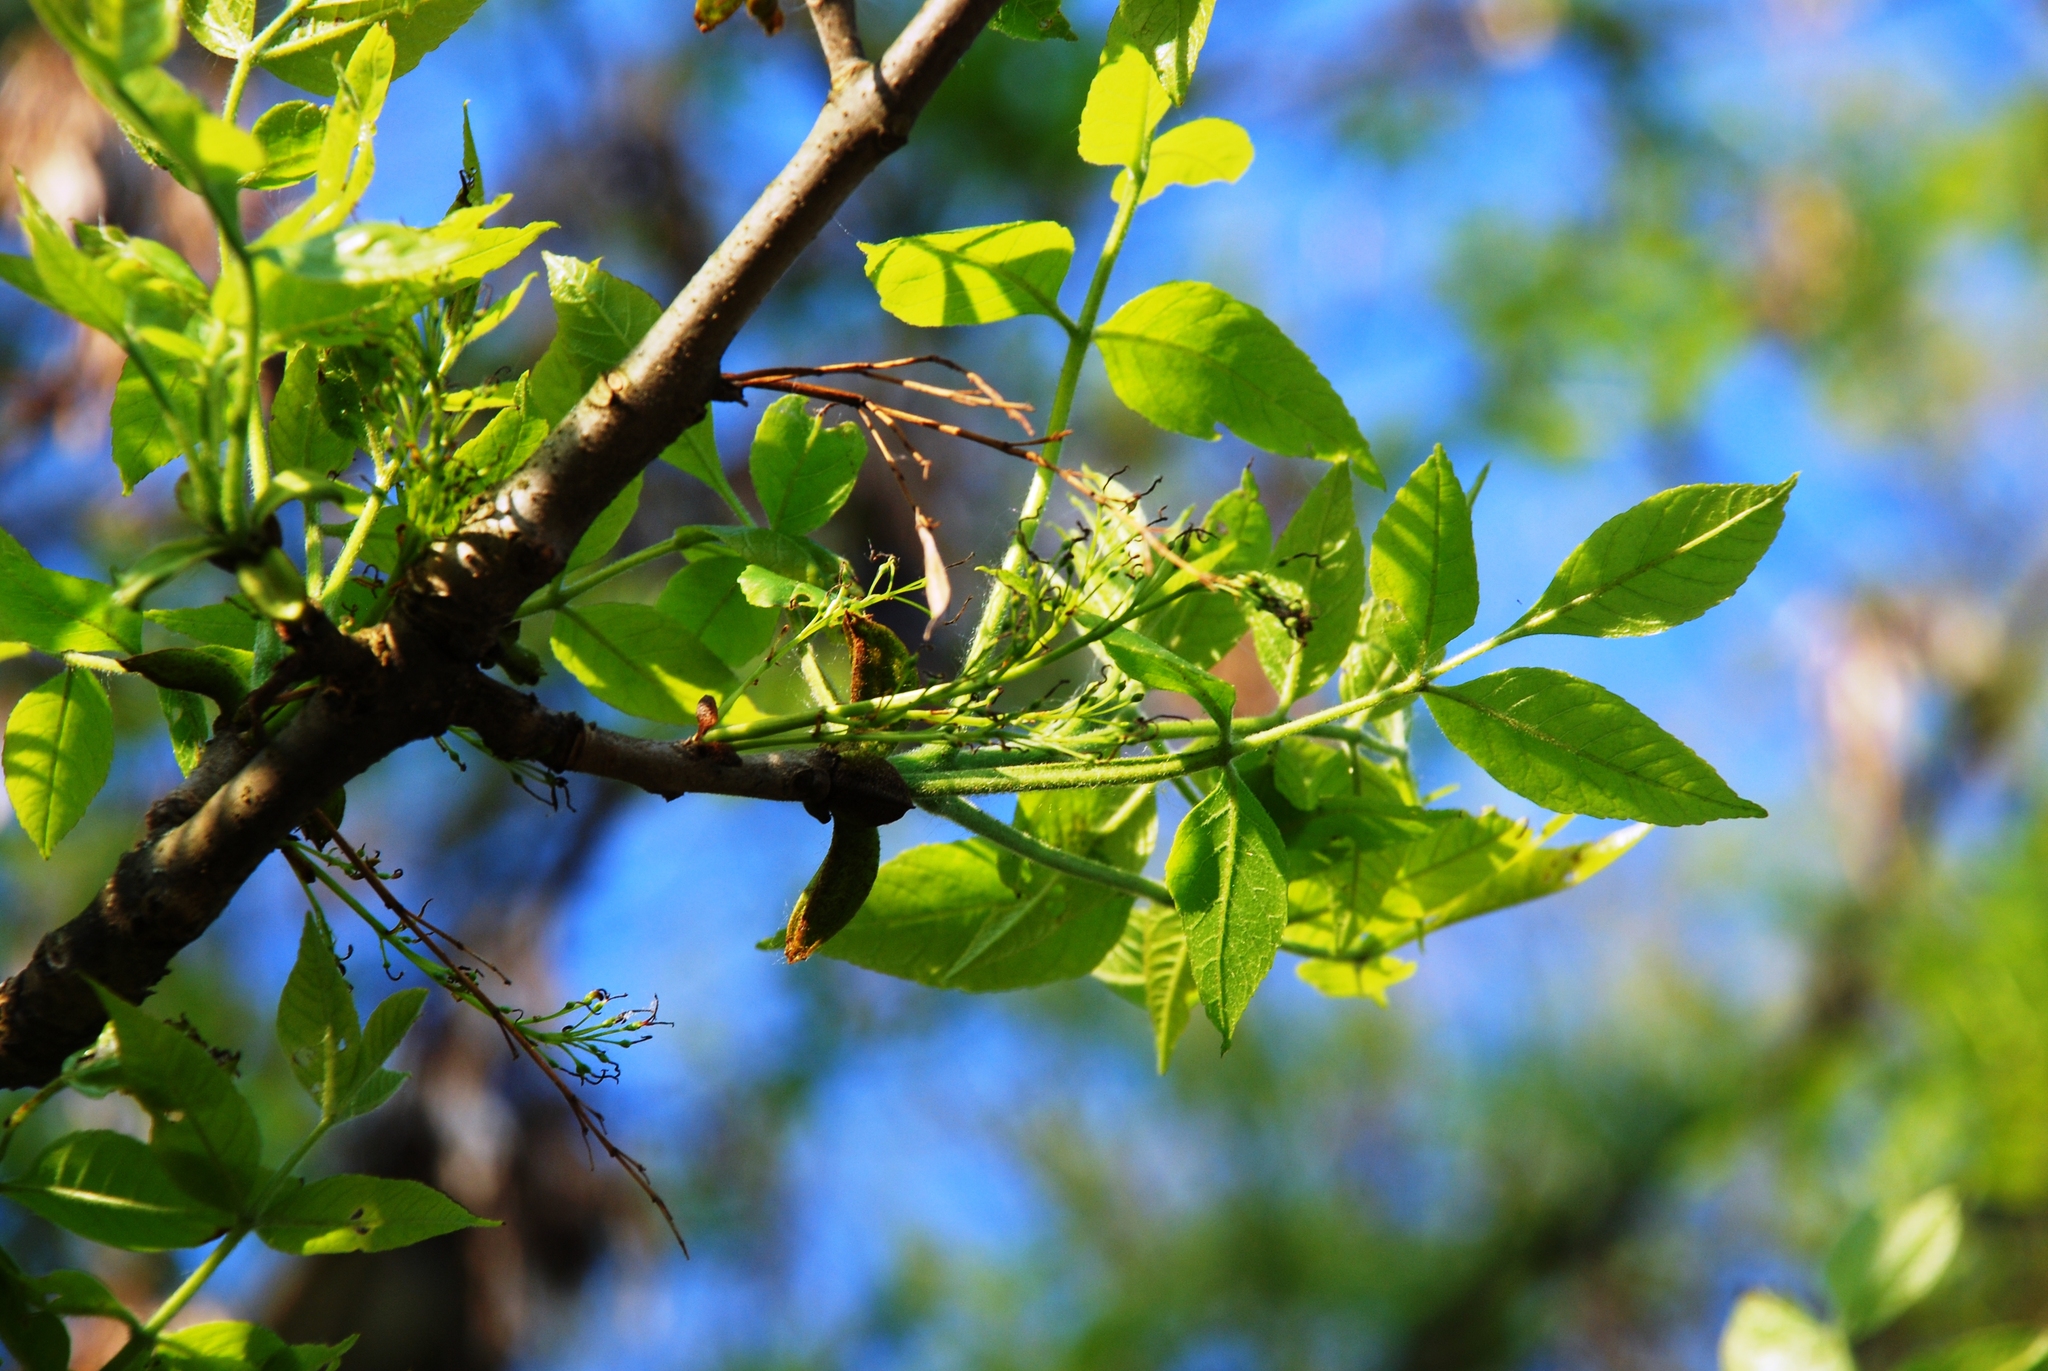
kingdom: Plantae
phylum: Tracheophyta
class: Magnoliopsida
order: Lamiales
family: Oleaceae
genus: Fraxinus
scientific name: Fraxinus pennsylvanica
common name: Green ash
